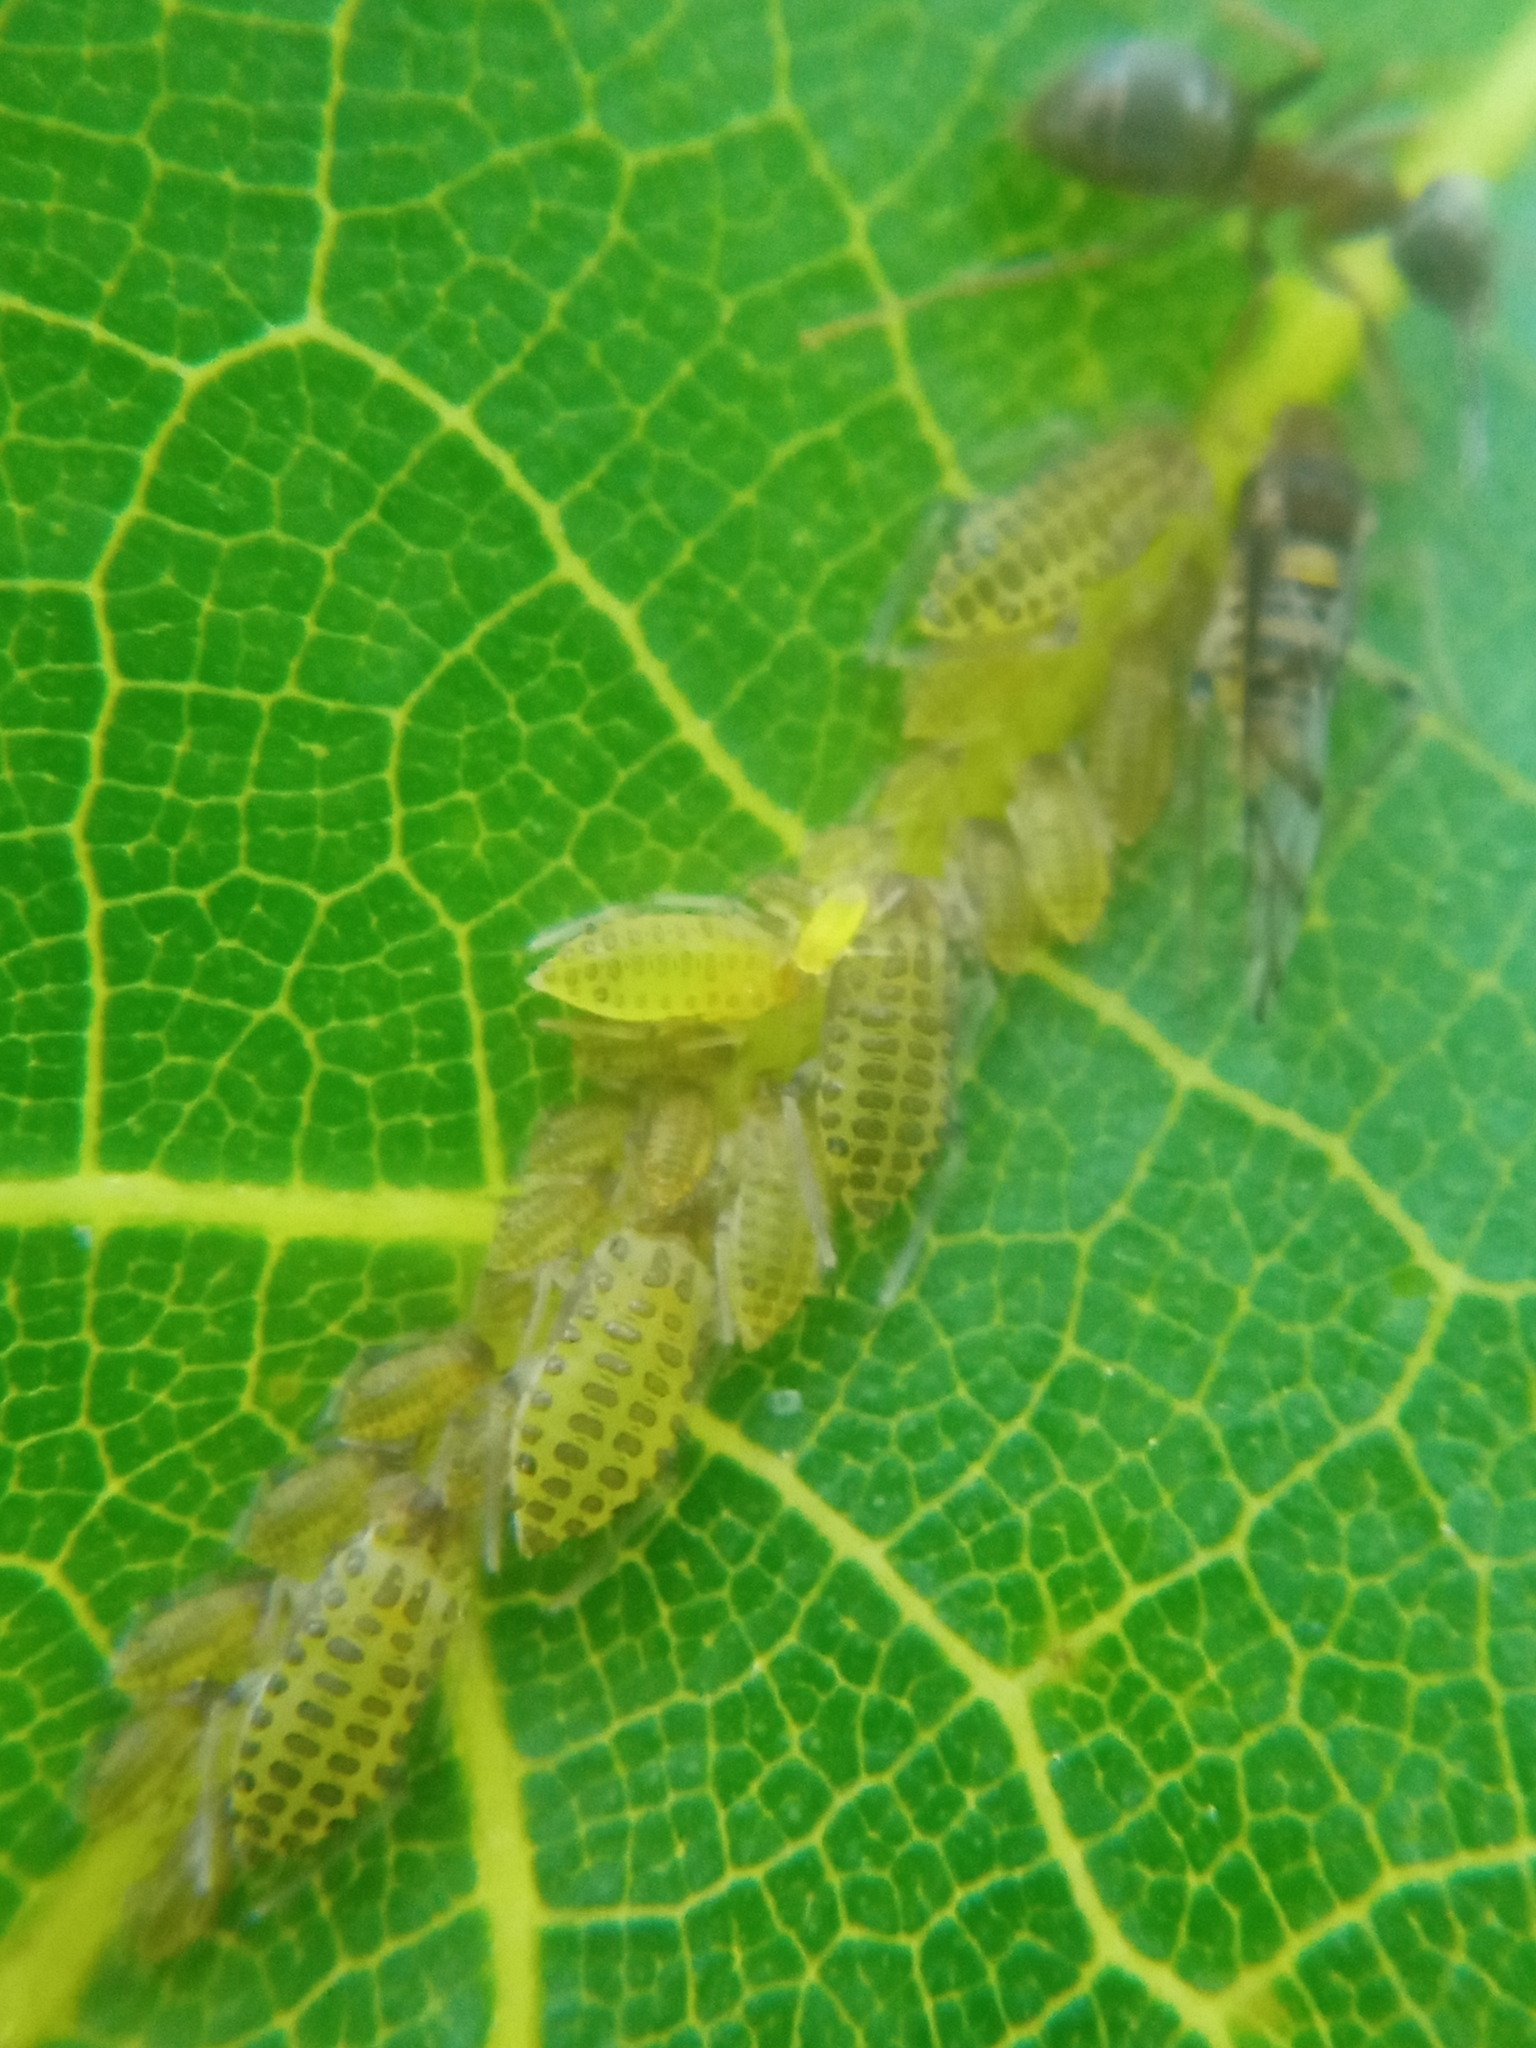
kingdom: Animalia
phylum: Arthropoda
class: Insecta
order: Hemiptera
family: Aphididae
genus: Panaphis
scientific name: Panaphis juglandis
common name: Large walnut aphid
